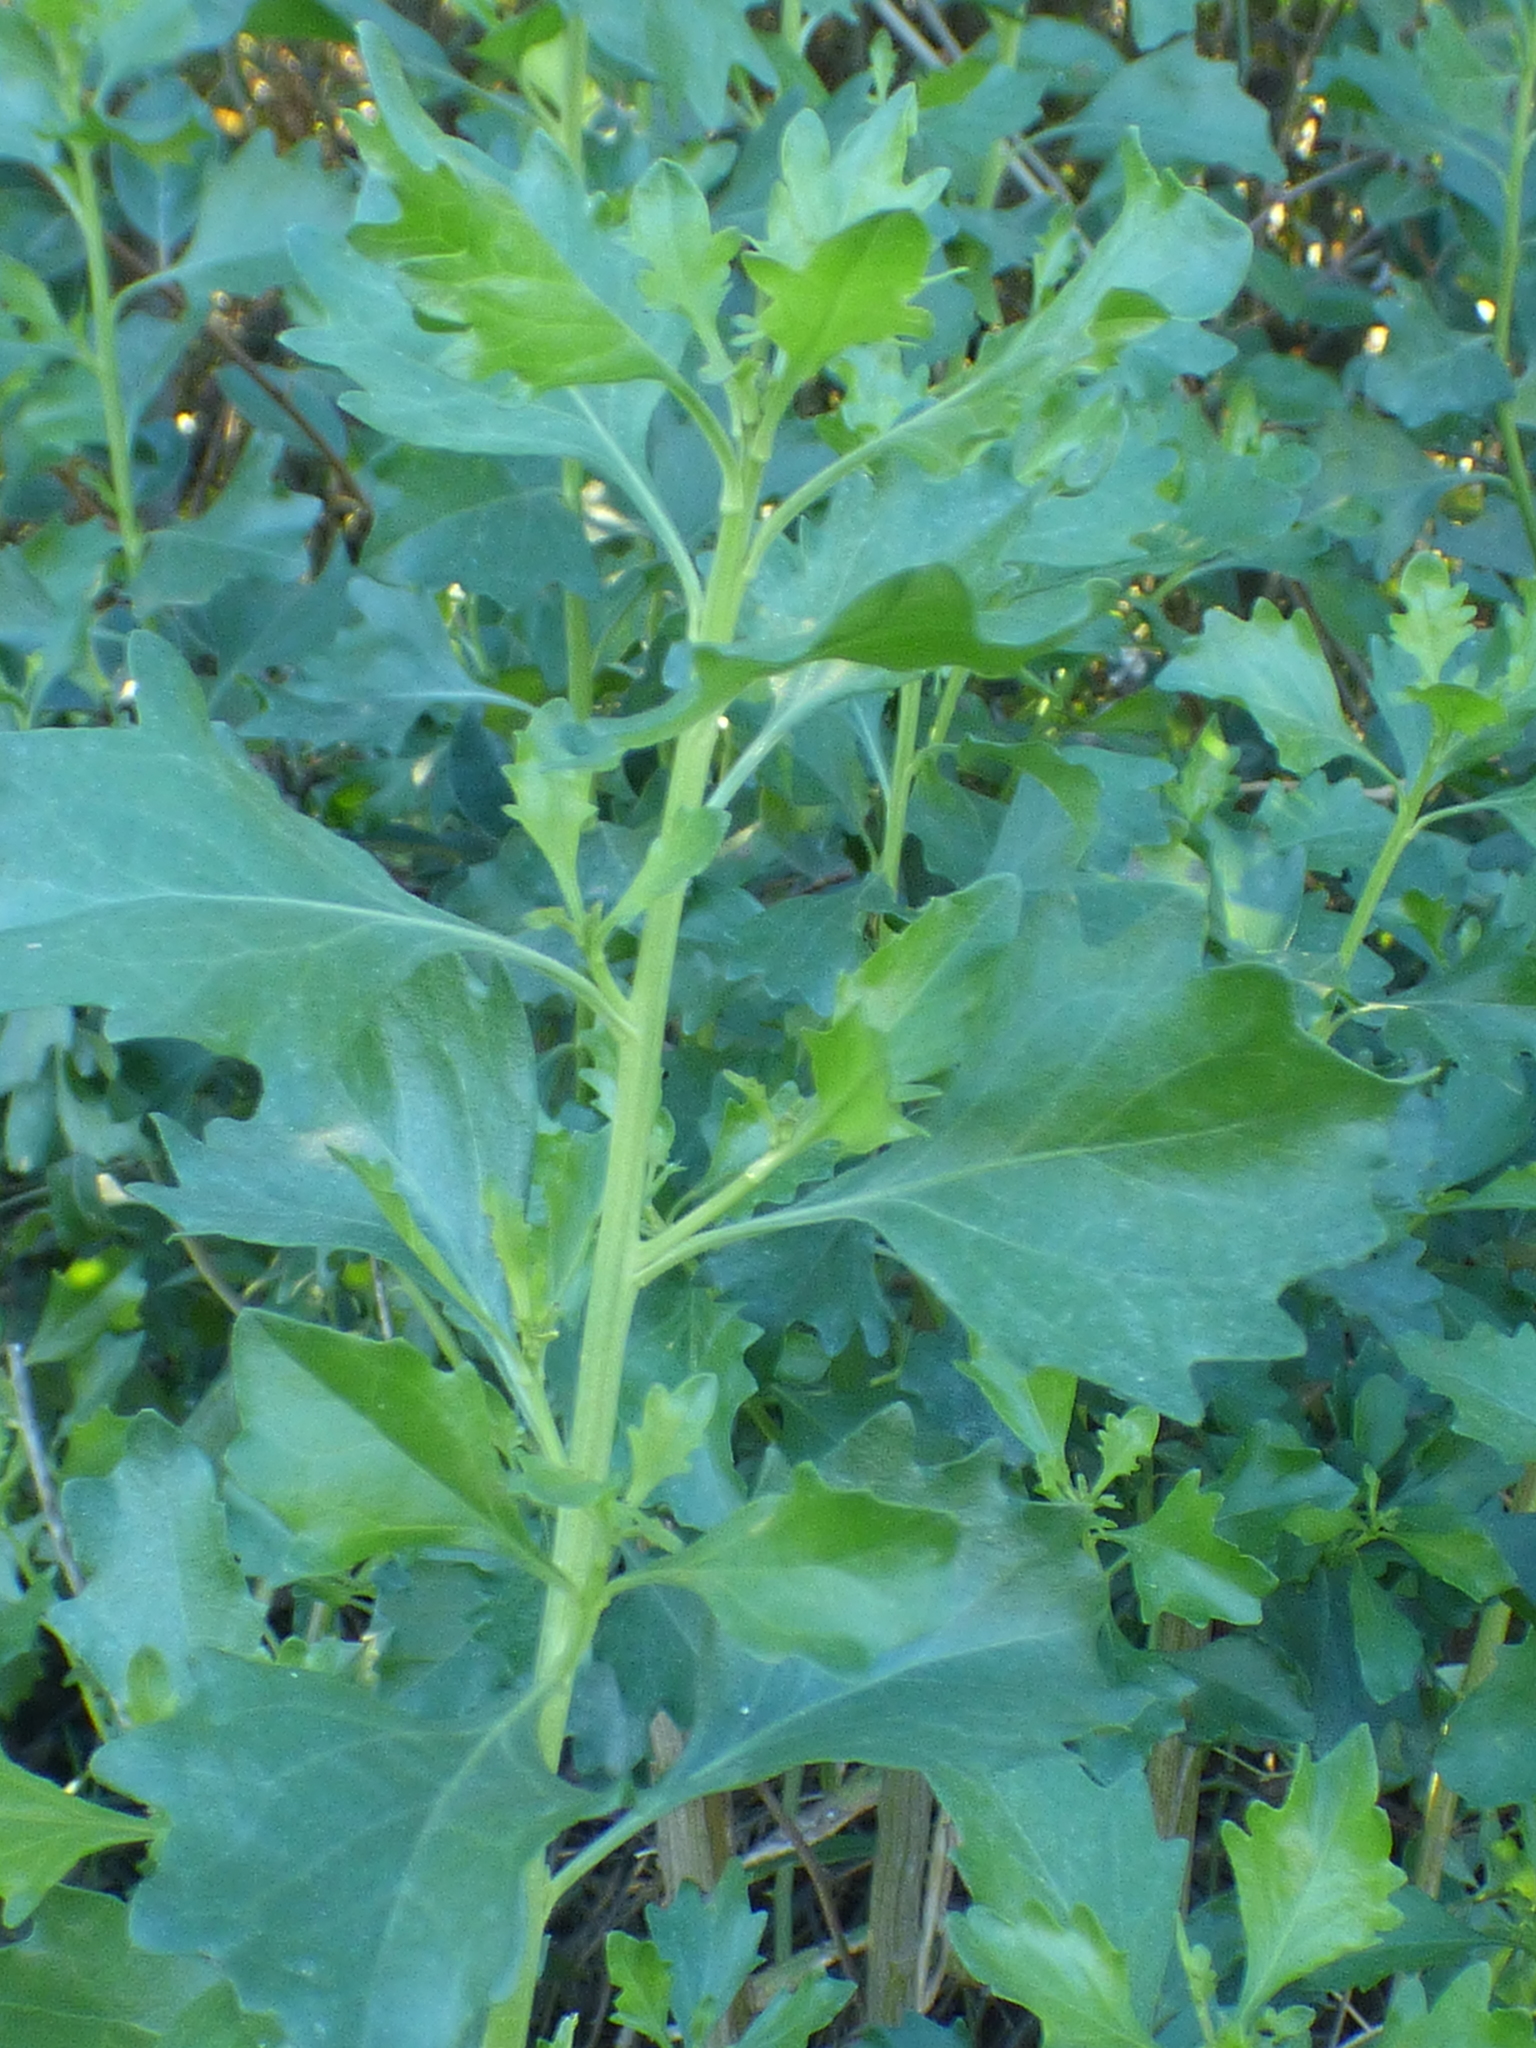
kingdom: Plantae
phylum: Tracheophyta
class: Magnoliopsida
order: Asterales
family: Asteraceae
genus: Baccharis
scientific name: Baccharis halimifolia
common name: Eastern baccharis
